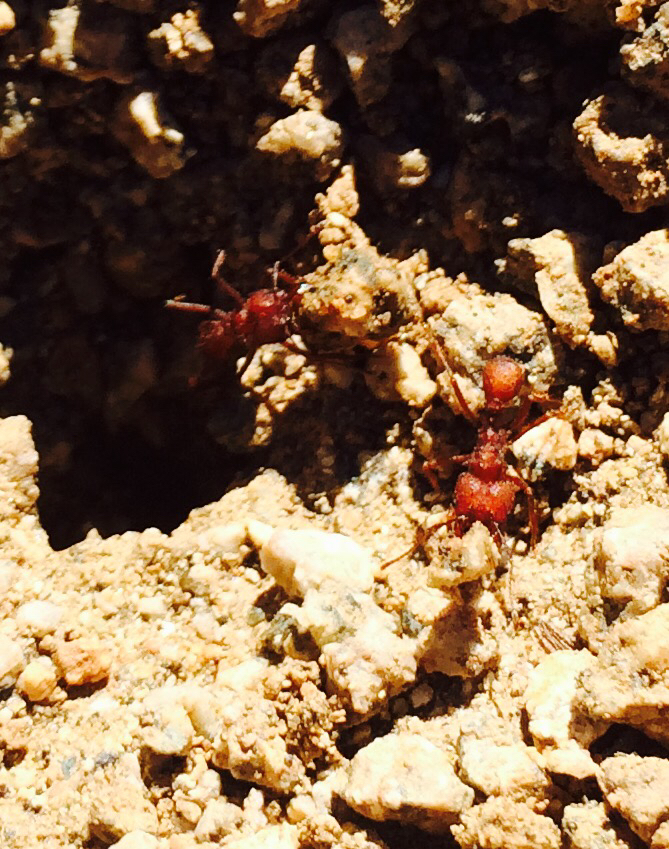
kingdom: Animalia
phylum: Arthropoda
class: Insecta
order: Hymenoptera
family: Formicidae
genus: Acromyrmex
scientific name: Acromyrmex versicolor
